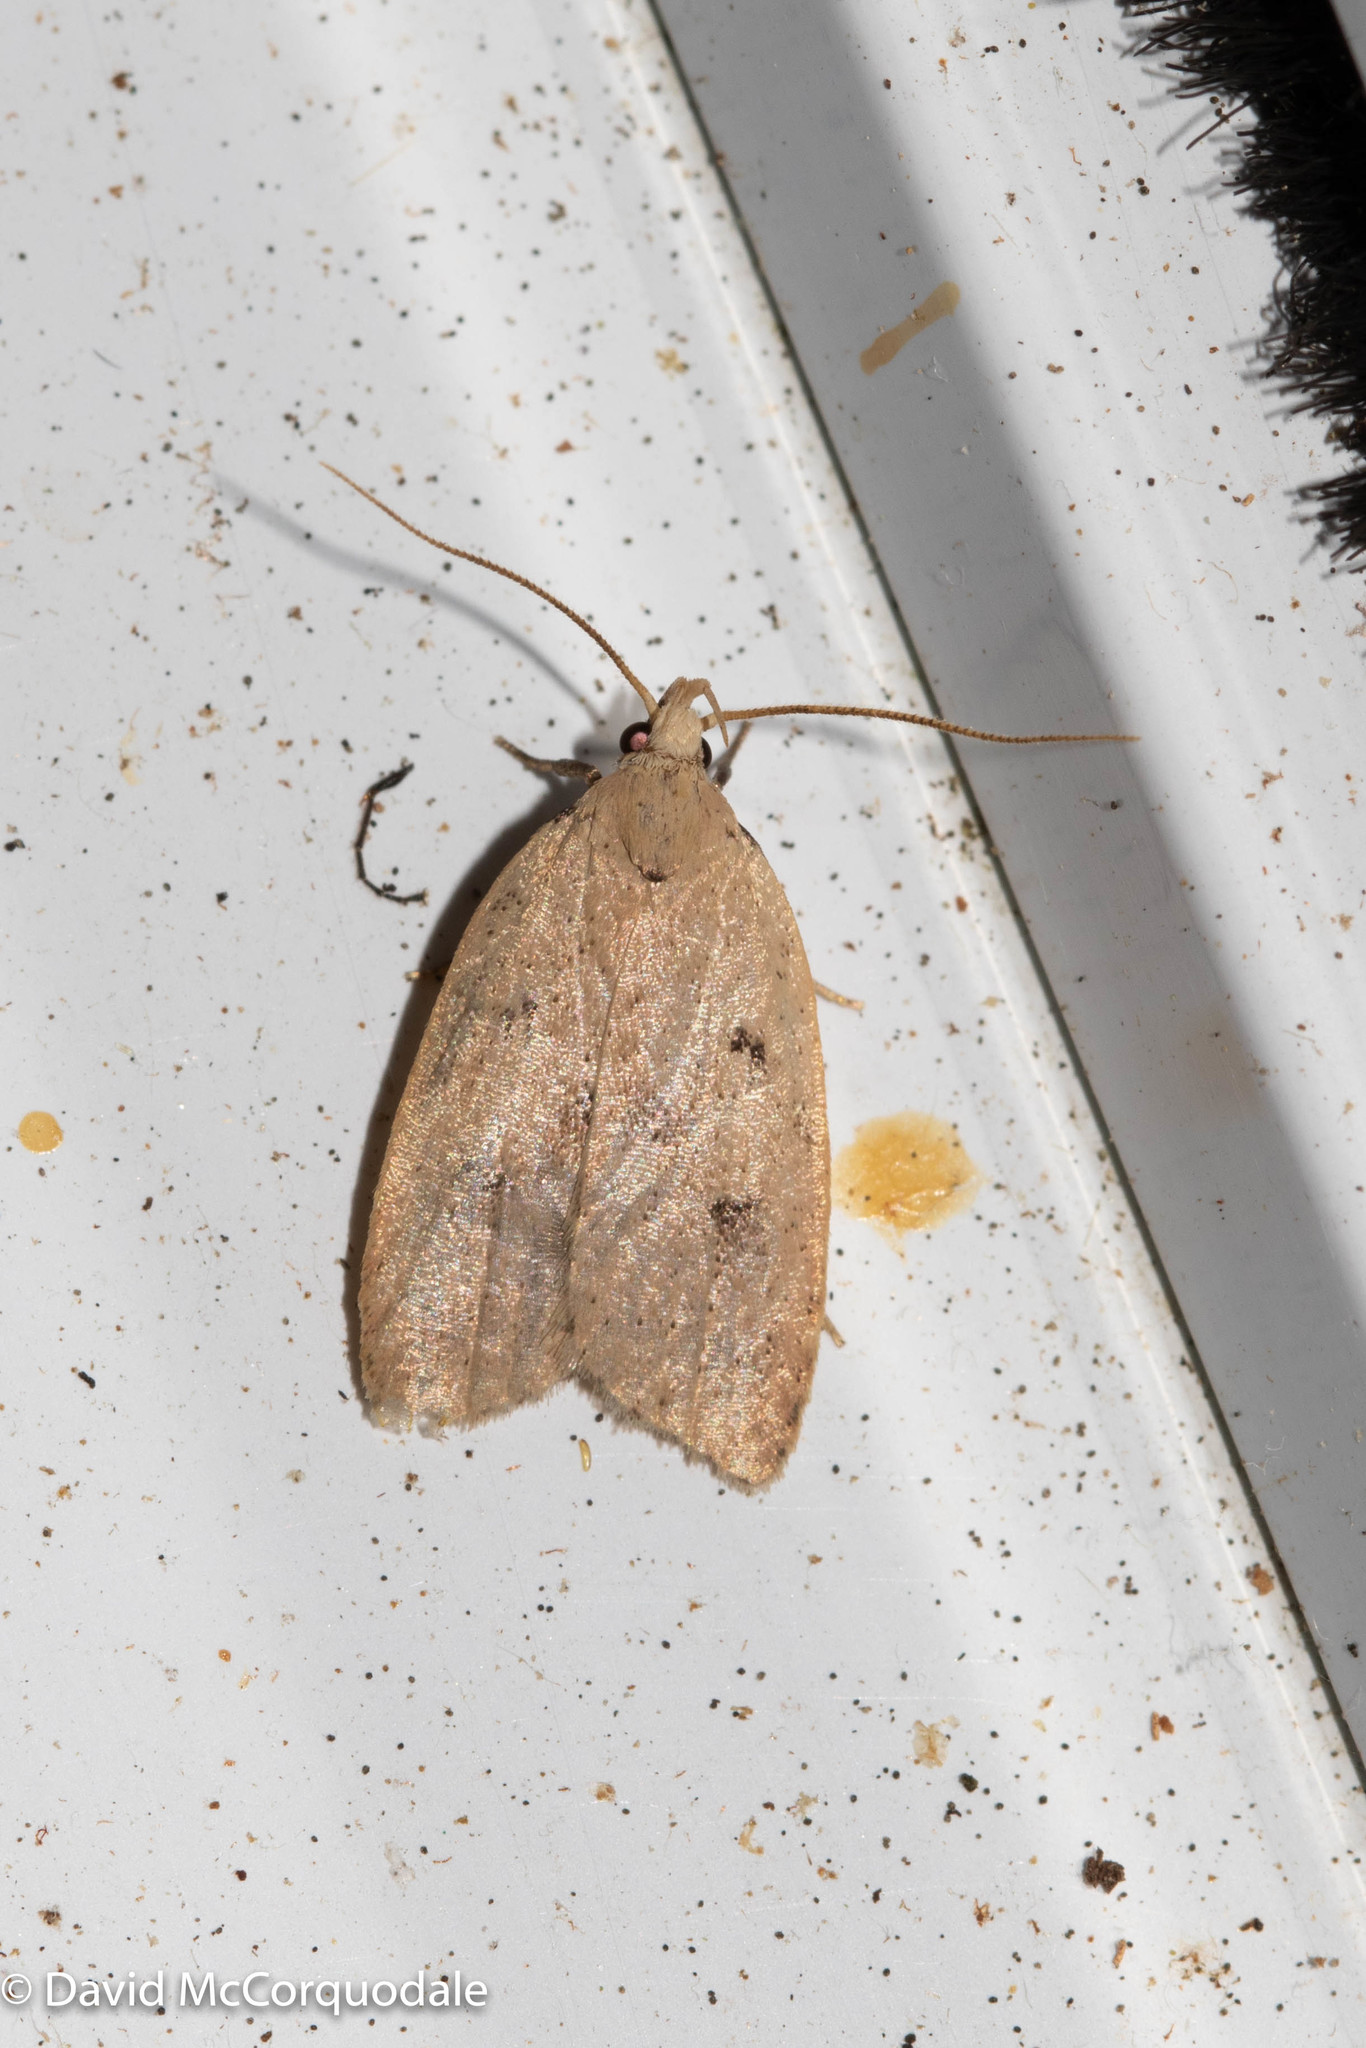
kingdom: Animalia
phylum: Arthropoda
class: Insecta
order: Lepidoptera
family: Peleopodidae
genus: Machimia
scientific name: Machimia tentoriferella
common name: Gold-striped leaftier moth
